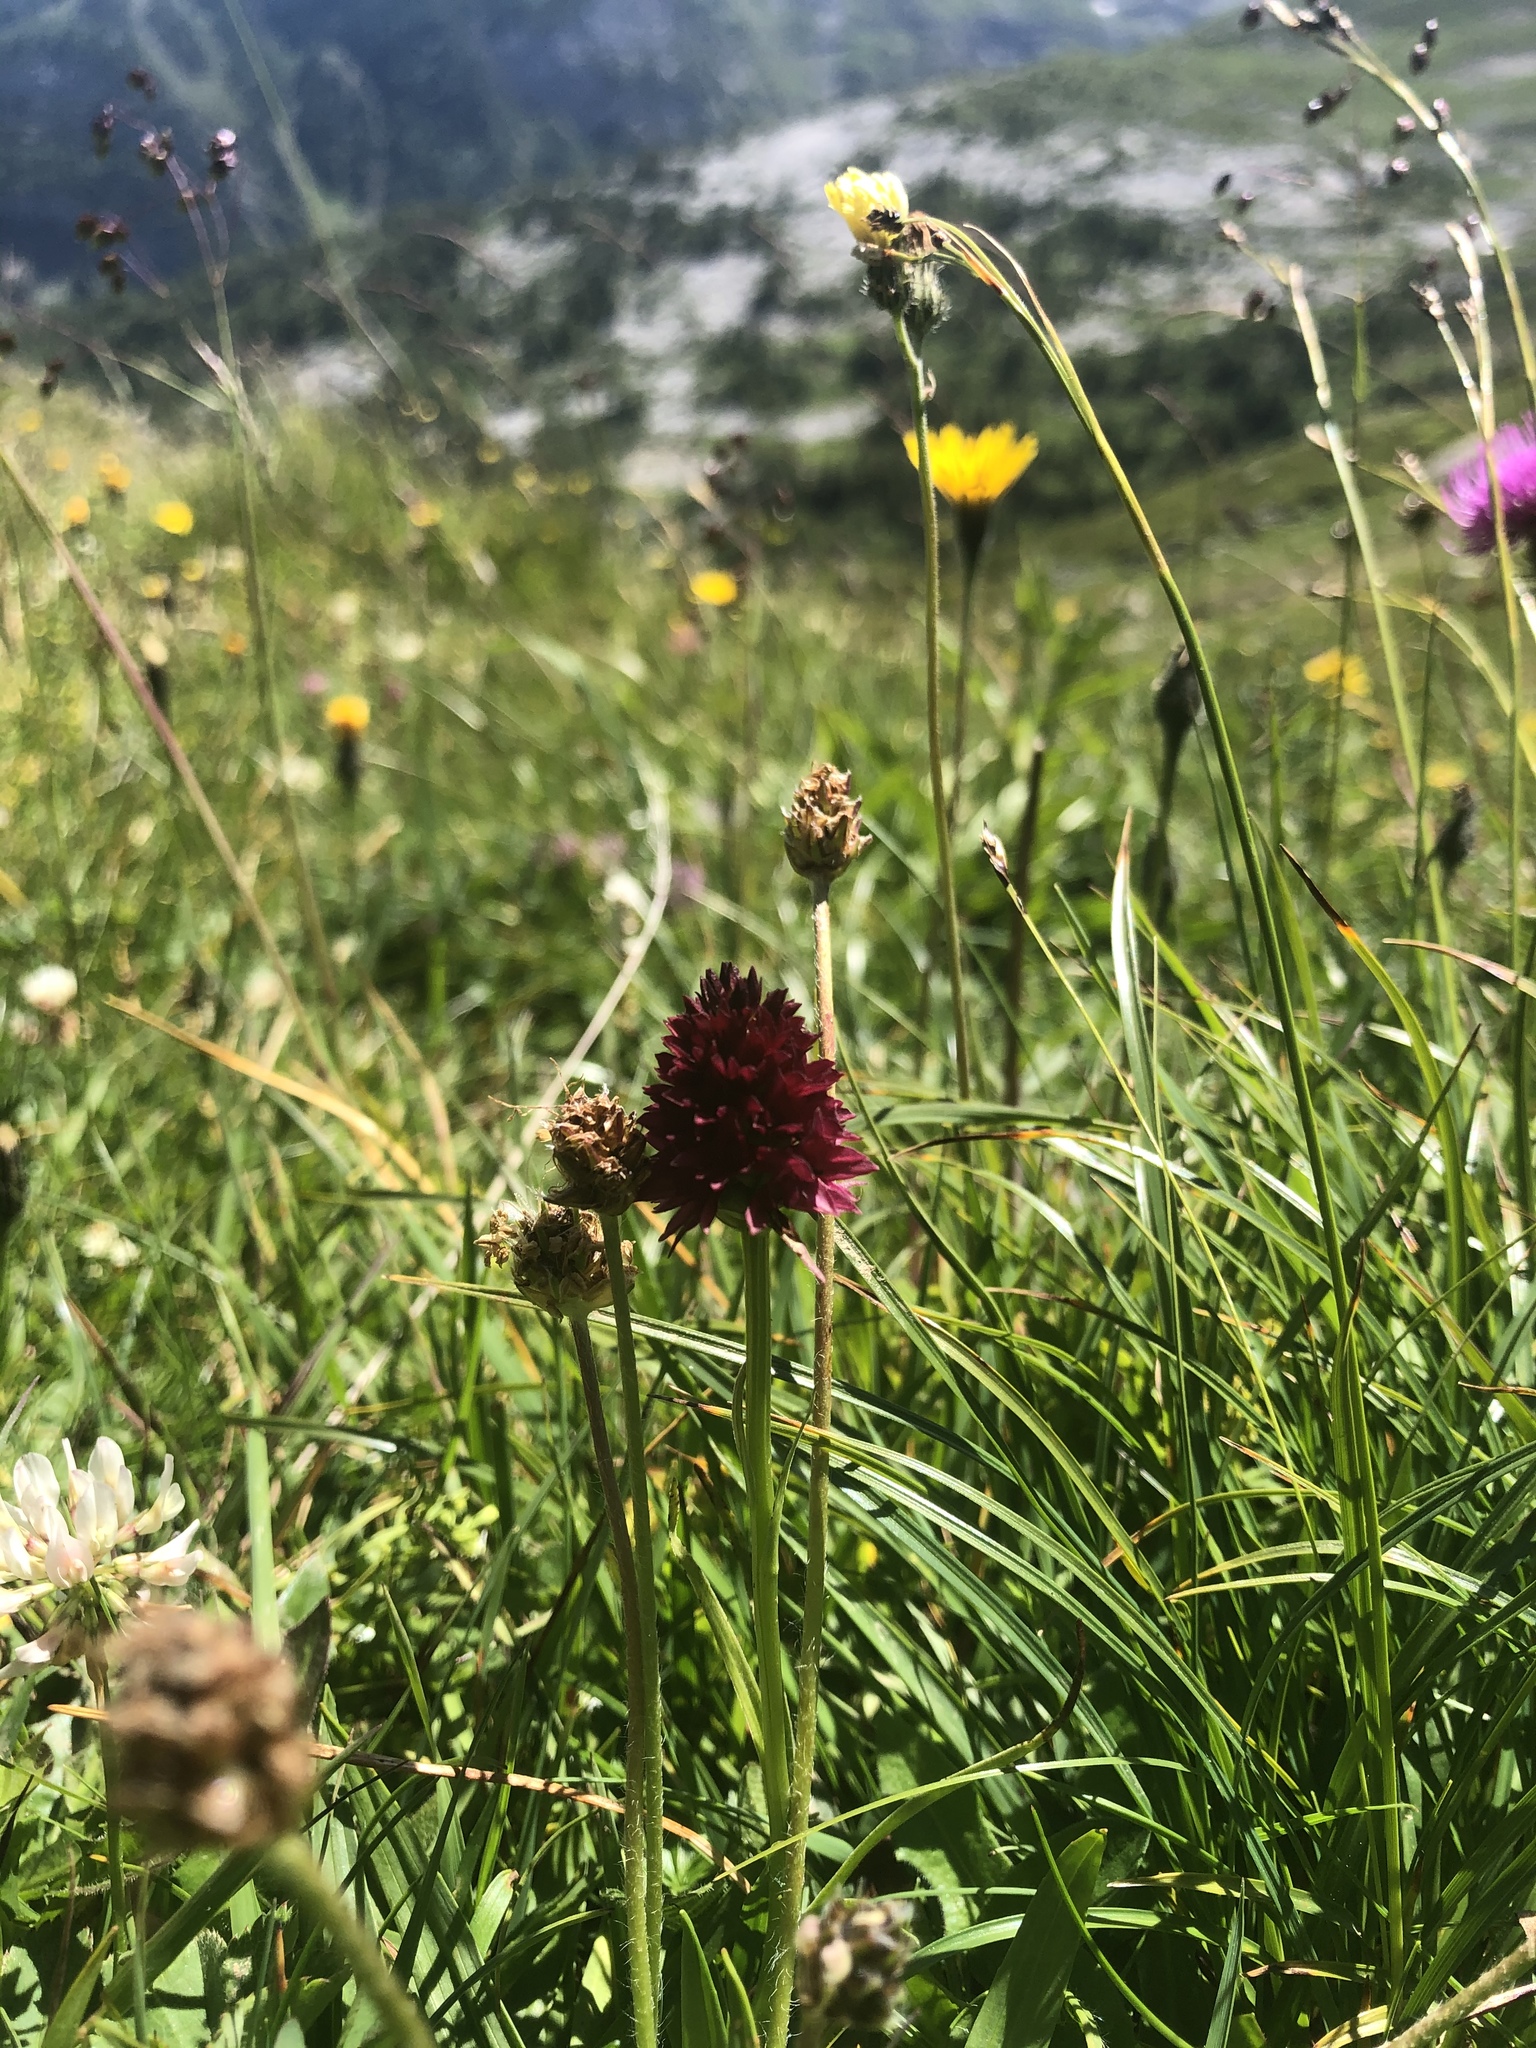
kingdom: Plantae
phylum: Tracheophyta
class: Liliopsida
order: Asparagales
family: Orchidaceae
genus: Gymnadenia
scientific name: Gymnadenia rhellicani
